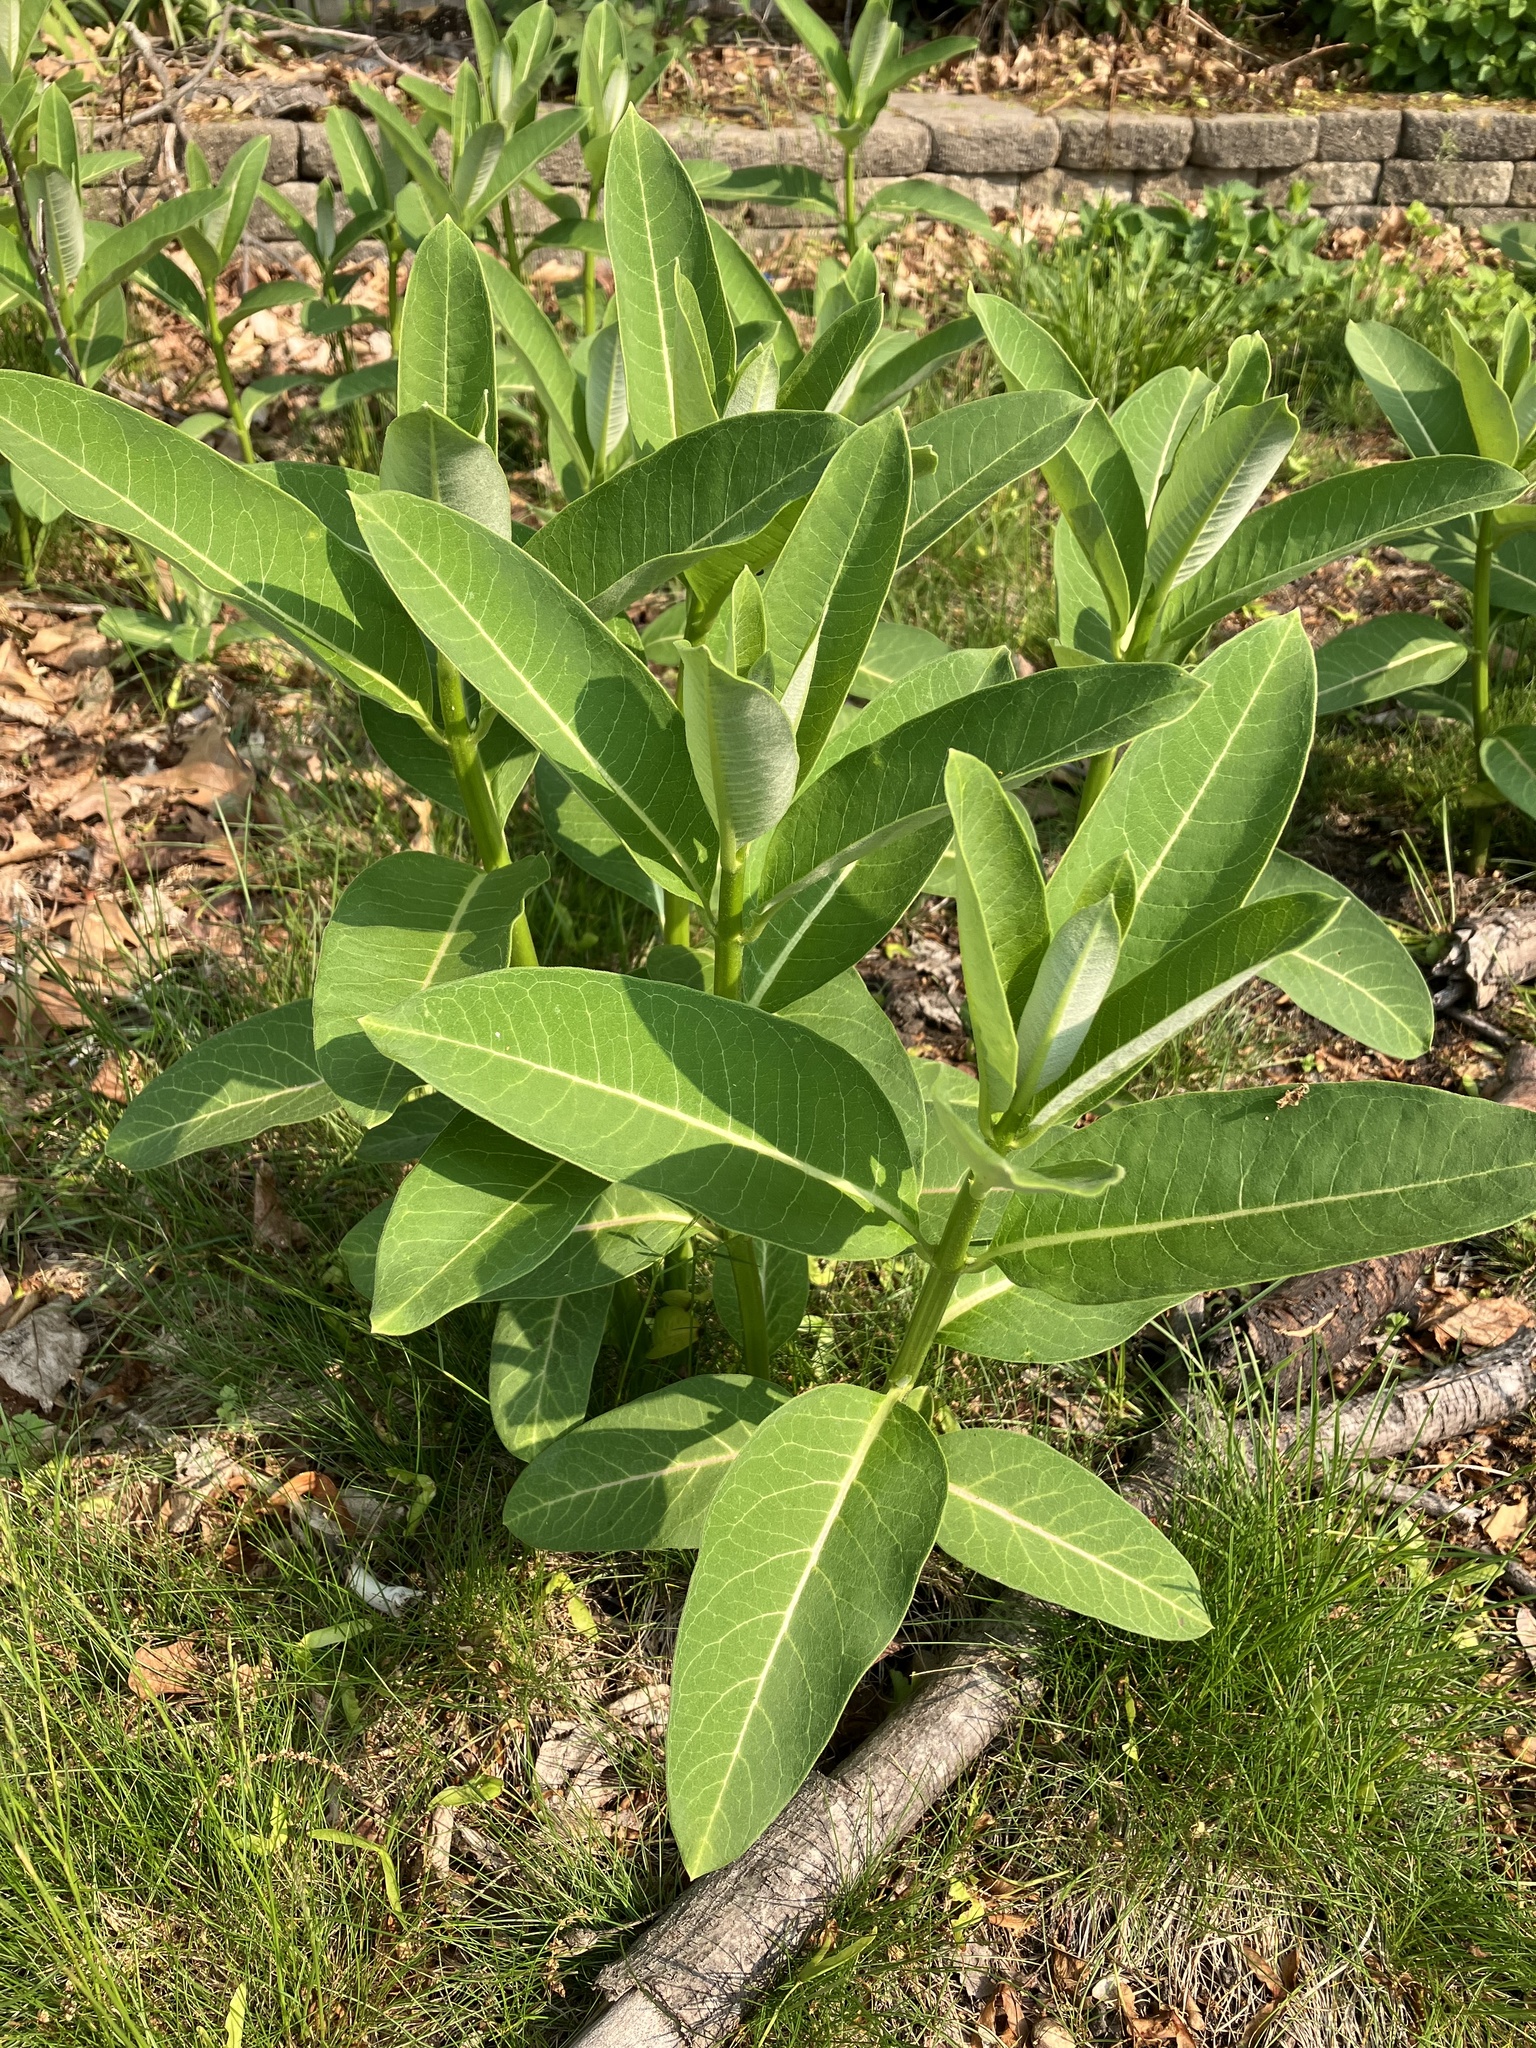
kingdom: Plantae
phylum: Tracheophyta
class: Magnoliopsida
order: Gentianales
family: Apocynaceae
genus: Asclepias
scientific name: Asclepias syriaca
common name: Common milkweed
